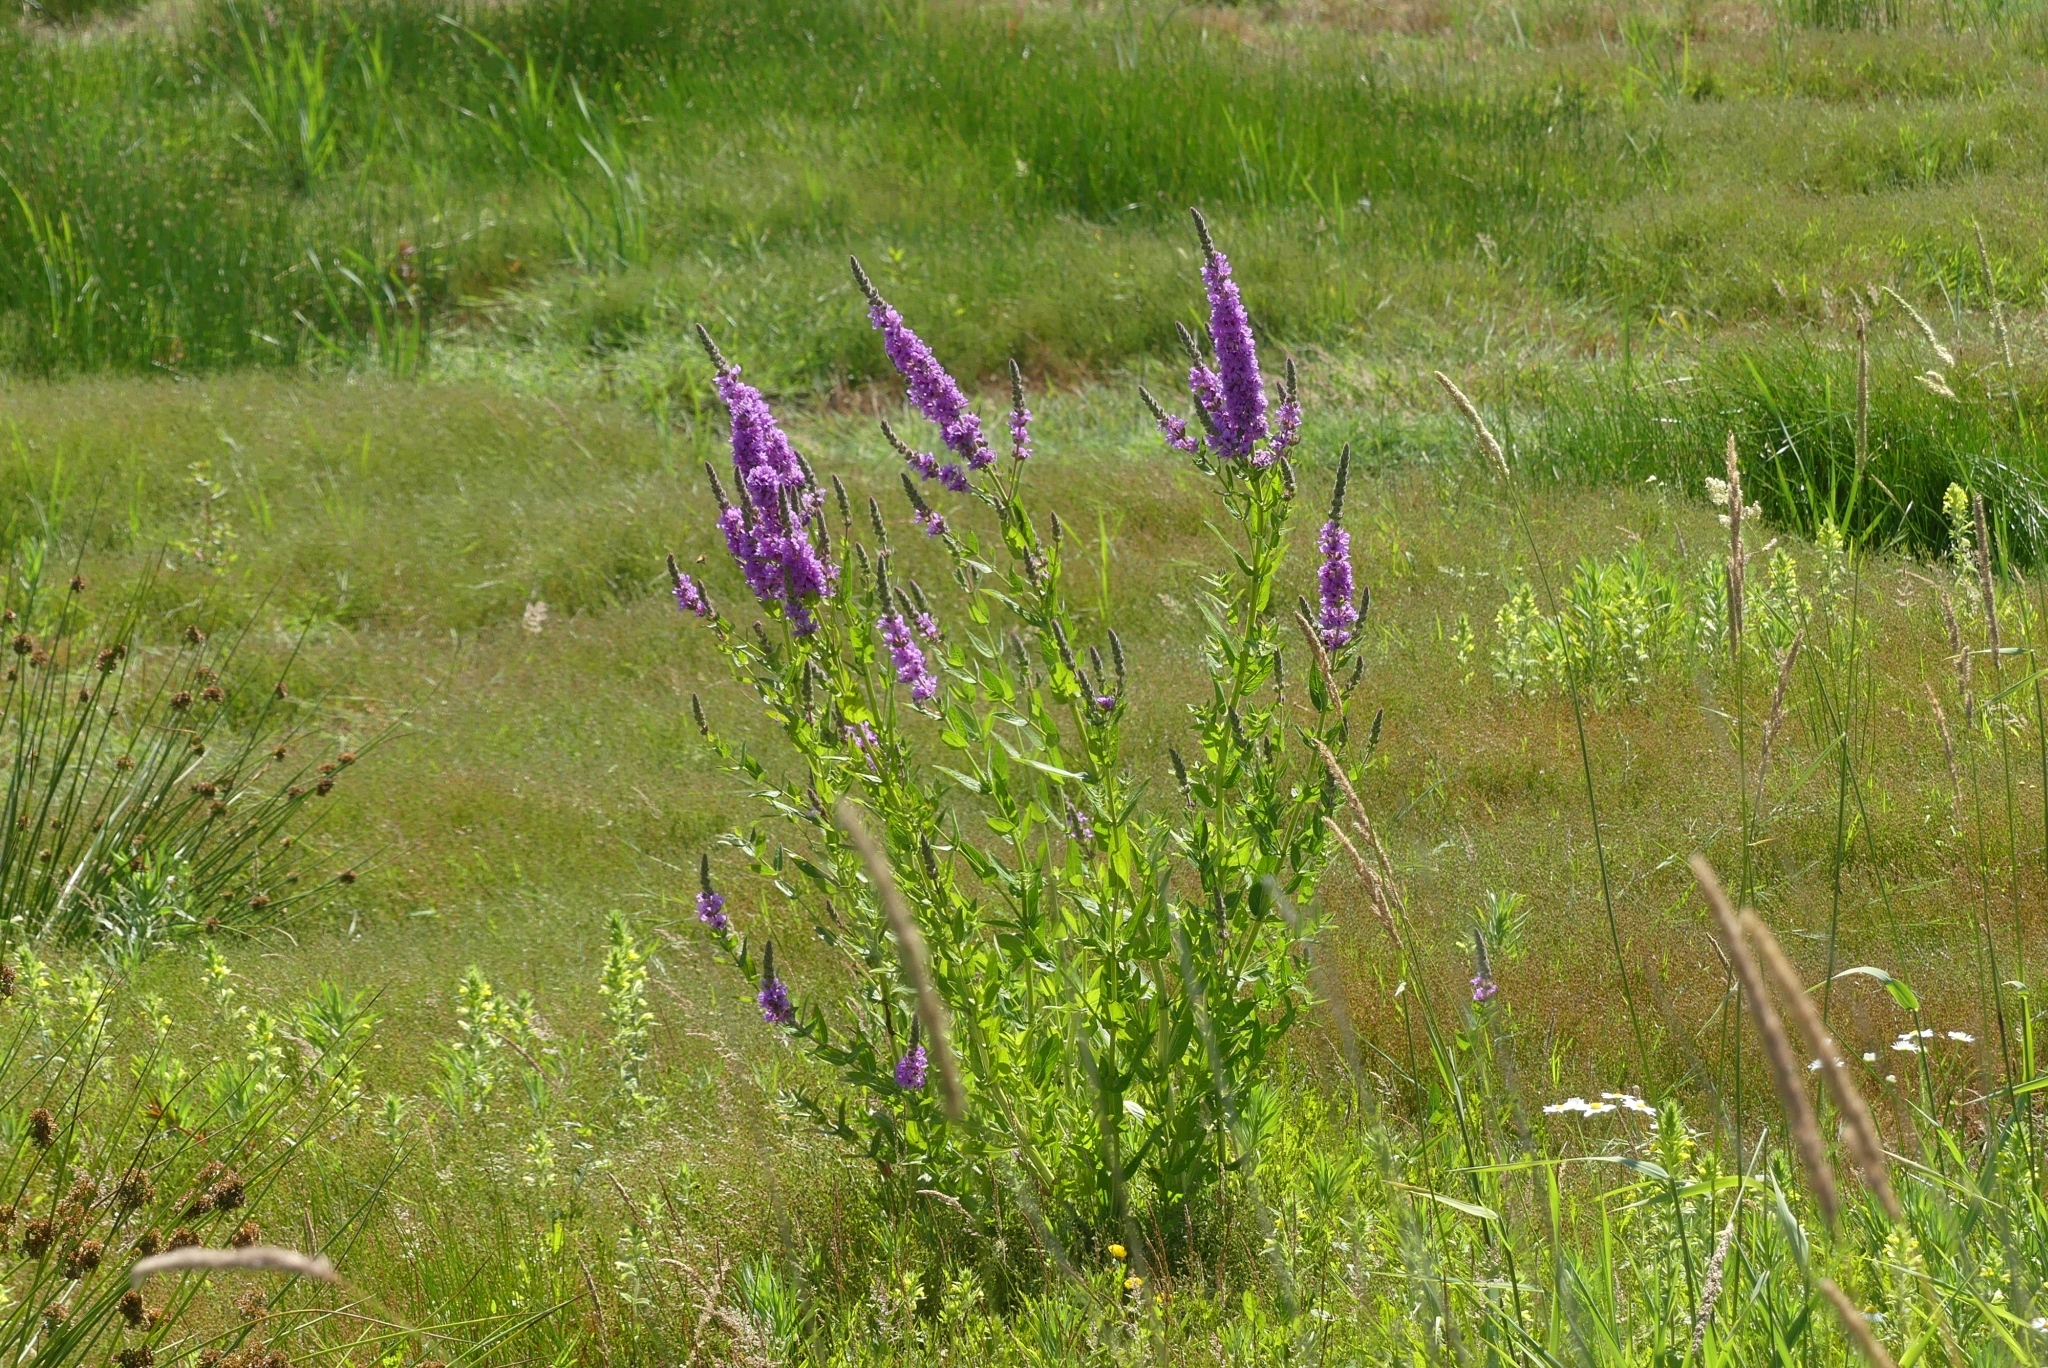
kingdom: Plantae
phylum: Tracheophyta
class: Magnoliopsida
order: Myrtales
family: Lythraceae
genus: Lythrum
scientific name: Lythrum salicaria
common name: Purple loosestrife
